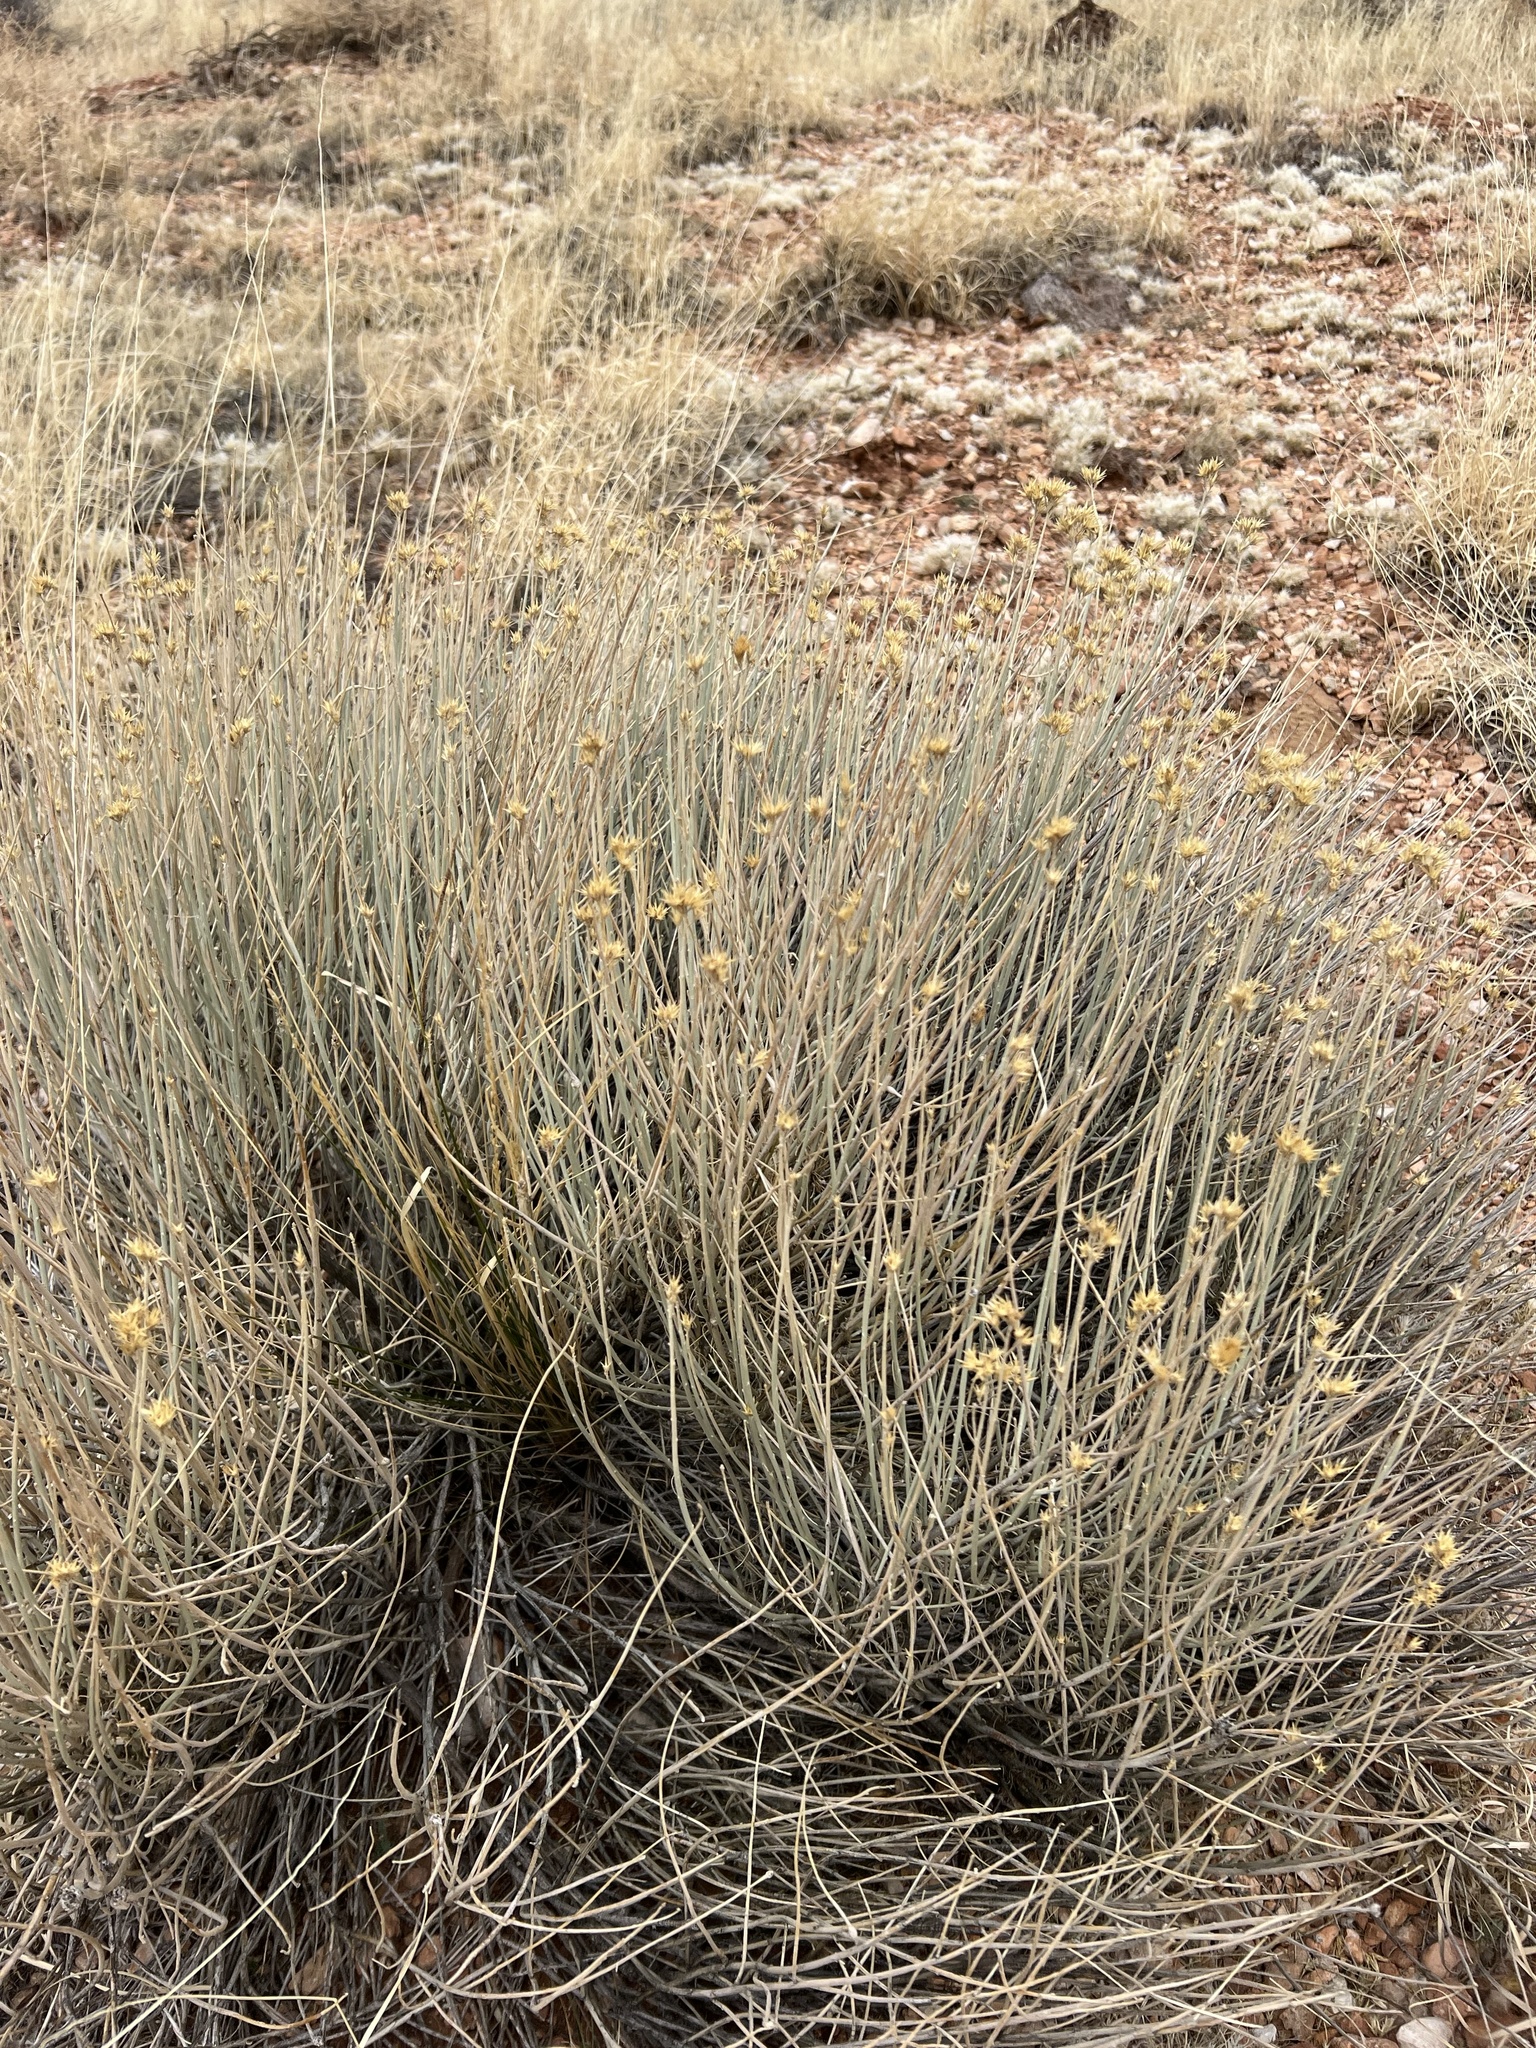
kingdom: Plantae
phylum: Tracheophyta
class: Magnoliopsida
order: Asterales
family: Asteraceae
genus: Ericameria
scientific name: Ericameria nauseosa
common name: Rubber rabbitbrush
